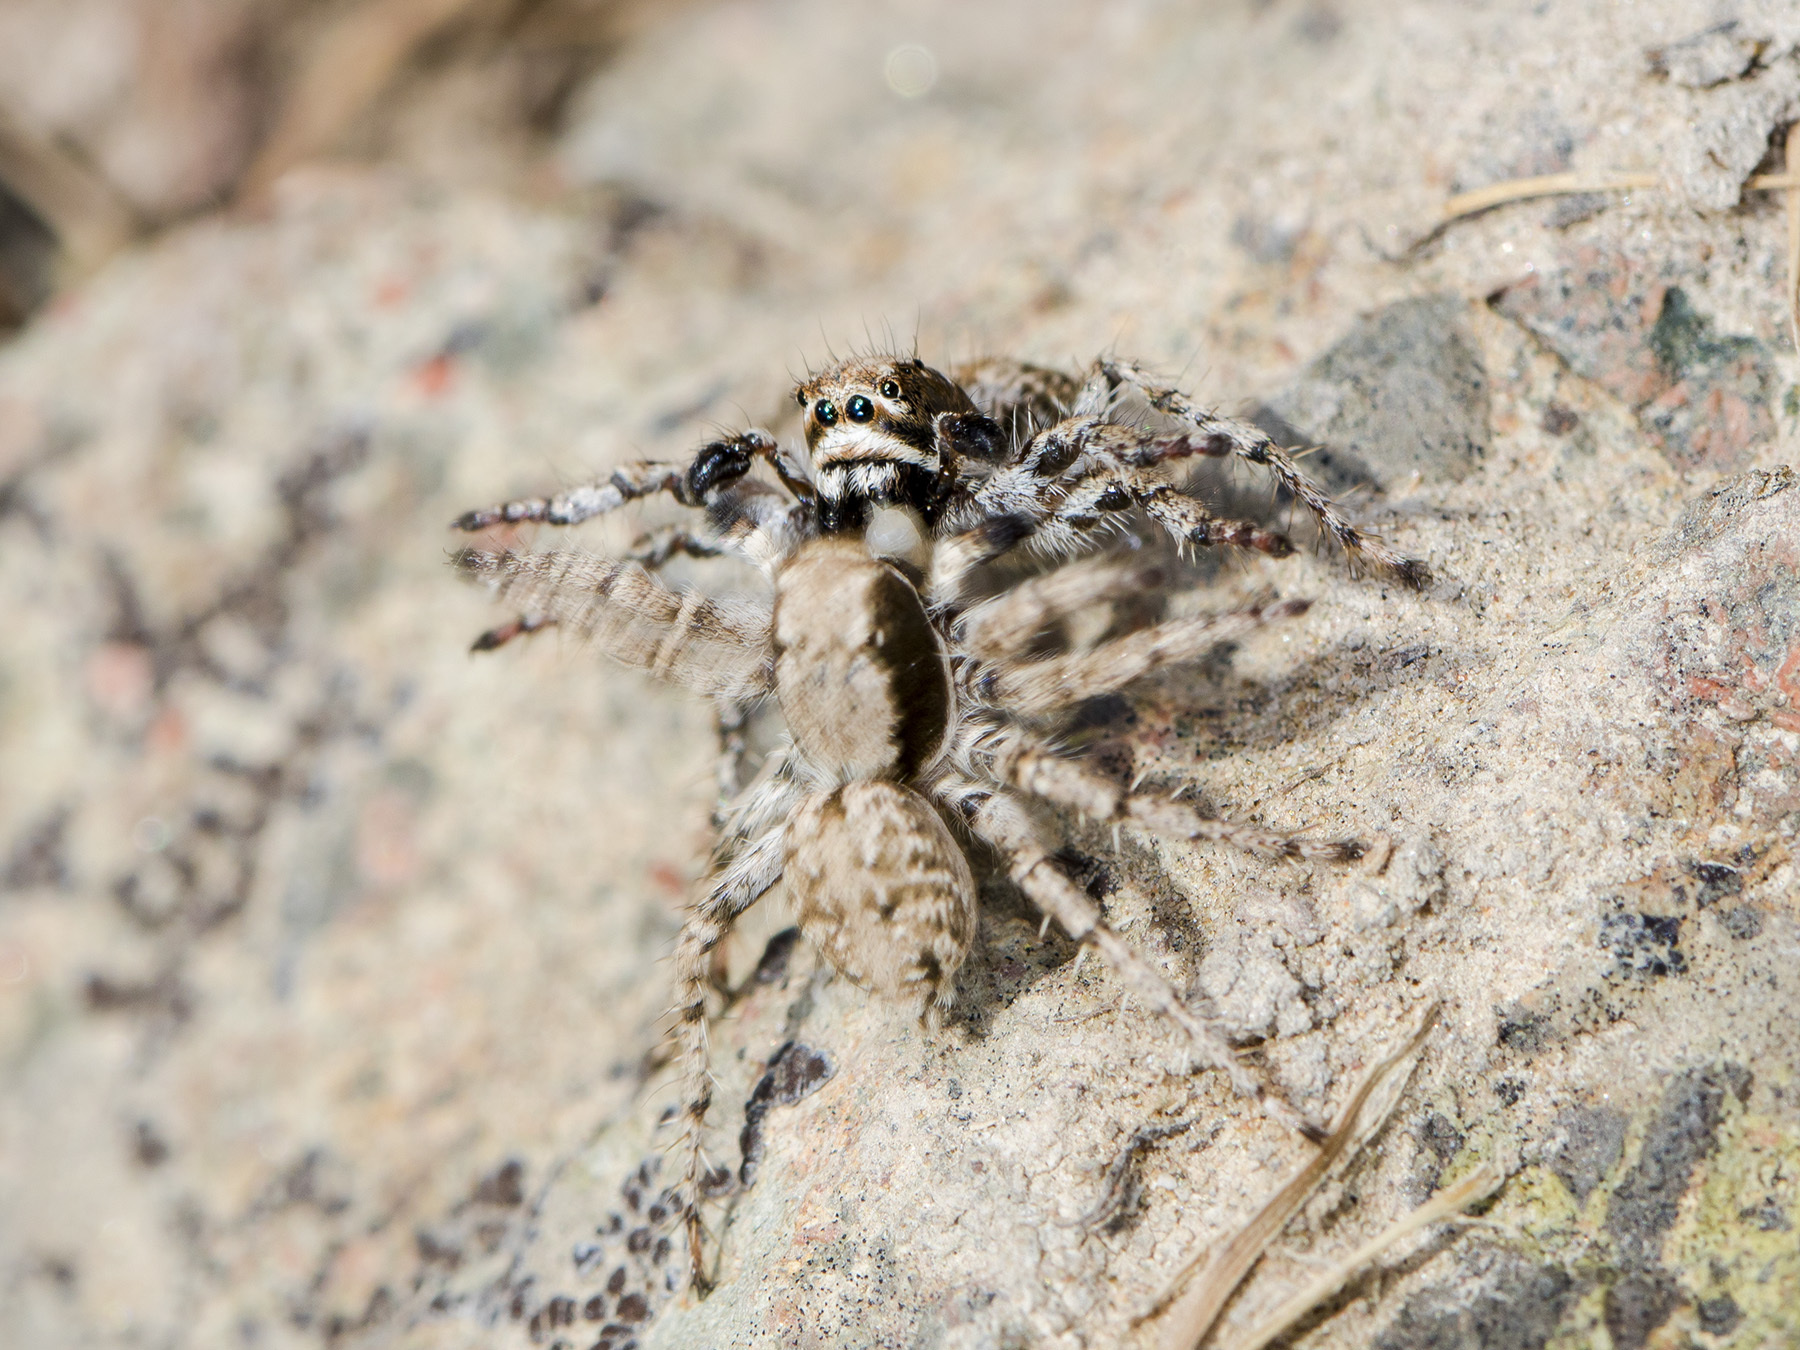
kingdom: Animalia
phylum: Arthropoda
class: Arachnida
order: Araneae
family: Salticidae
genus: Rafalus
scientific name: Rafalus variegatus
